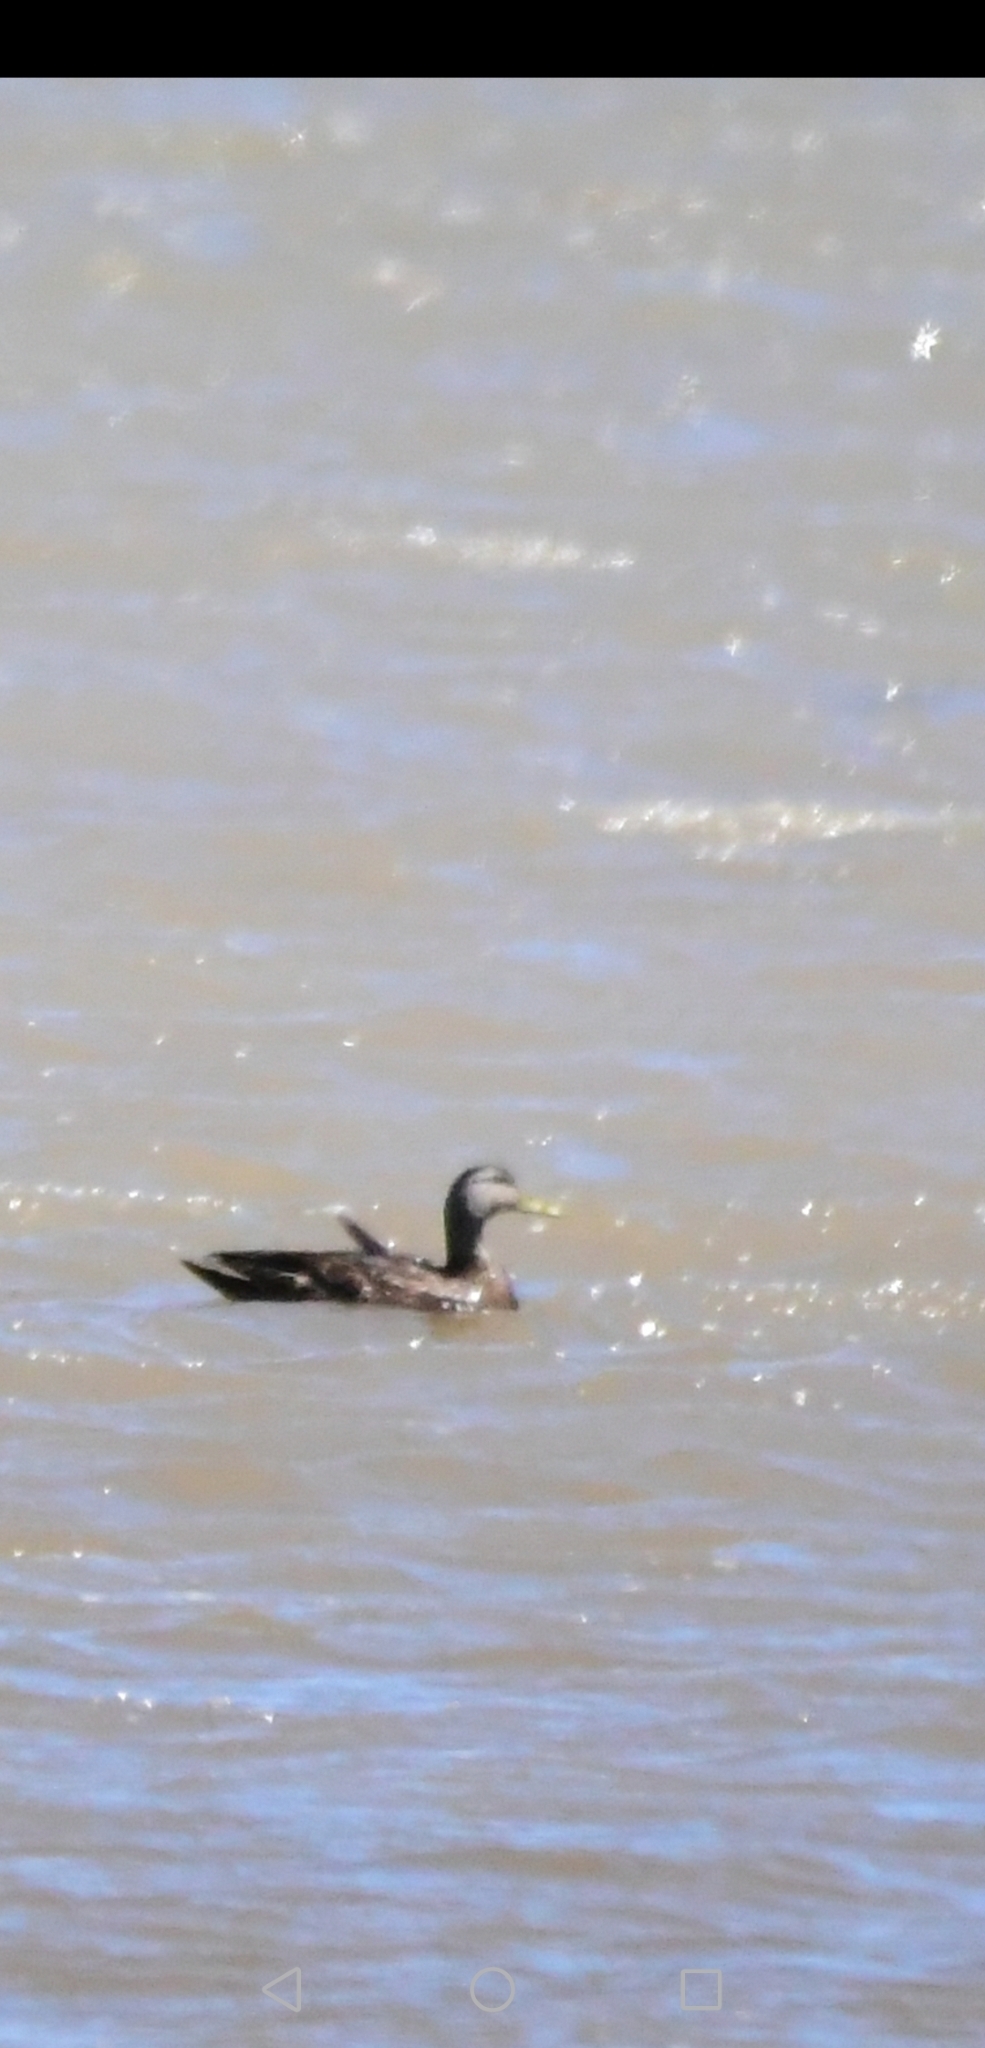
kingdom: Animalia
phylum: Chordata
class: Aves
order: Anseriformes
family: Anatidae
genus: Anas
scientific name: Anas rubripes
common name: American black duck
